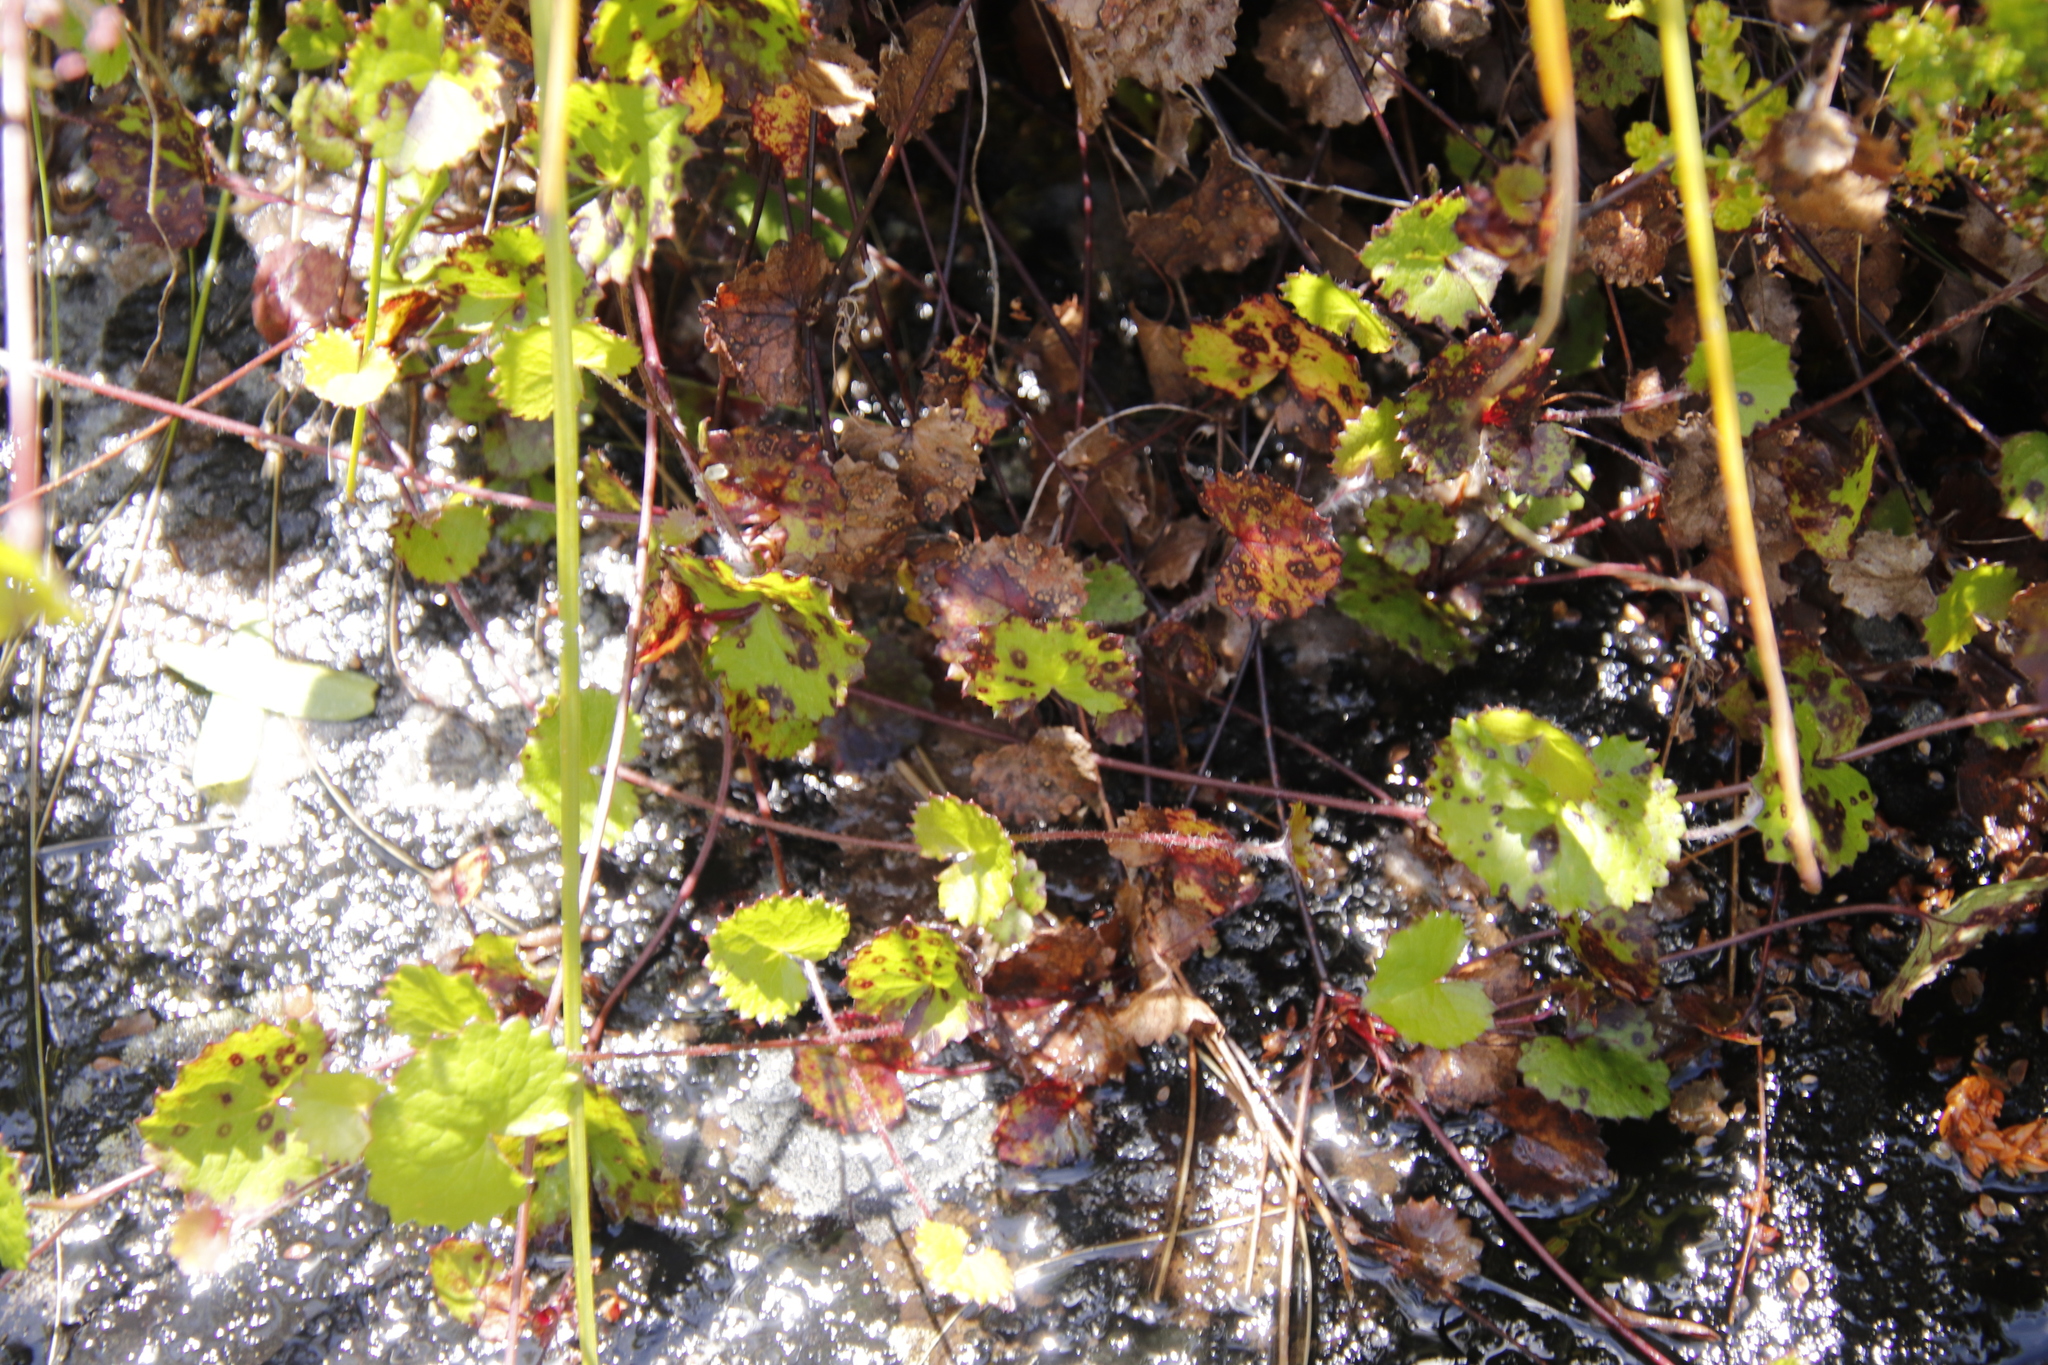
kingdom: Plantae
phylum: Tracheophyta
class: Magnoliopsida
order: Apiales
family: Apiaceae
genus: Centella
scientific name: Centella eriantha
